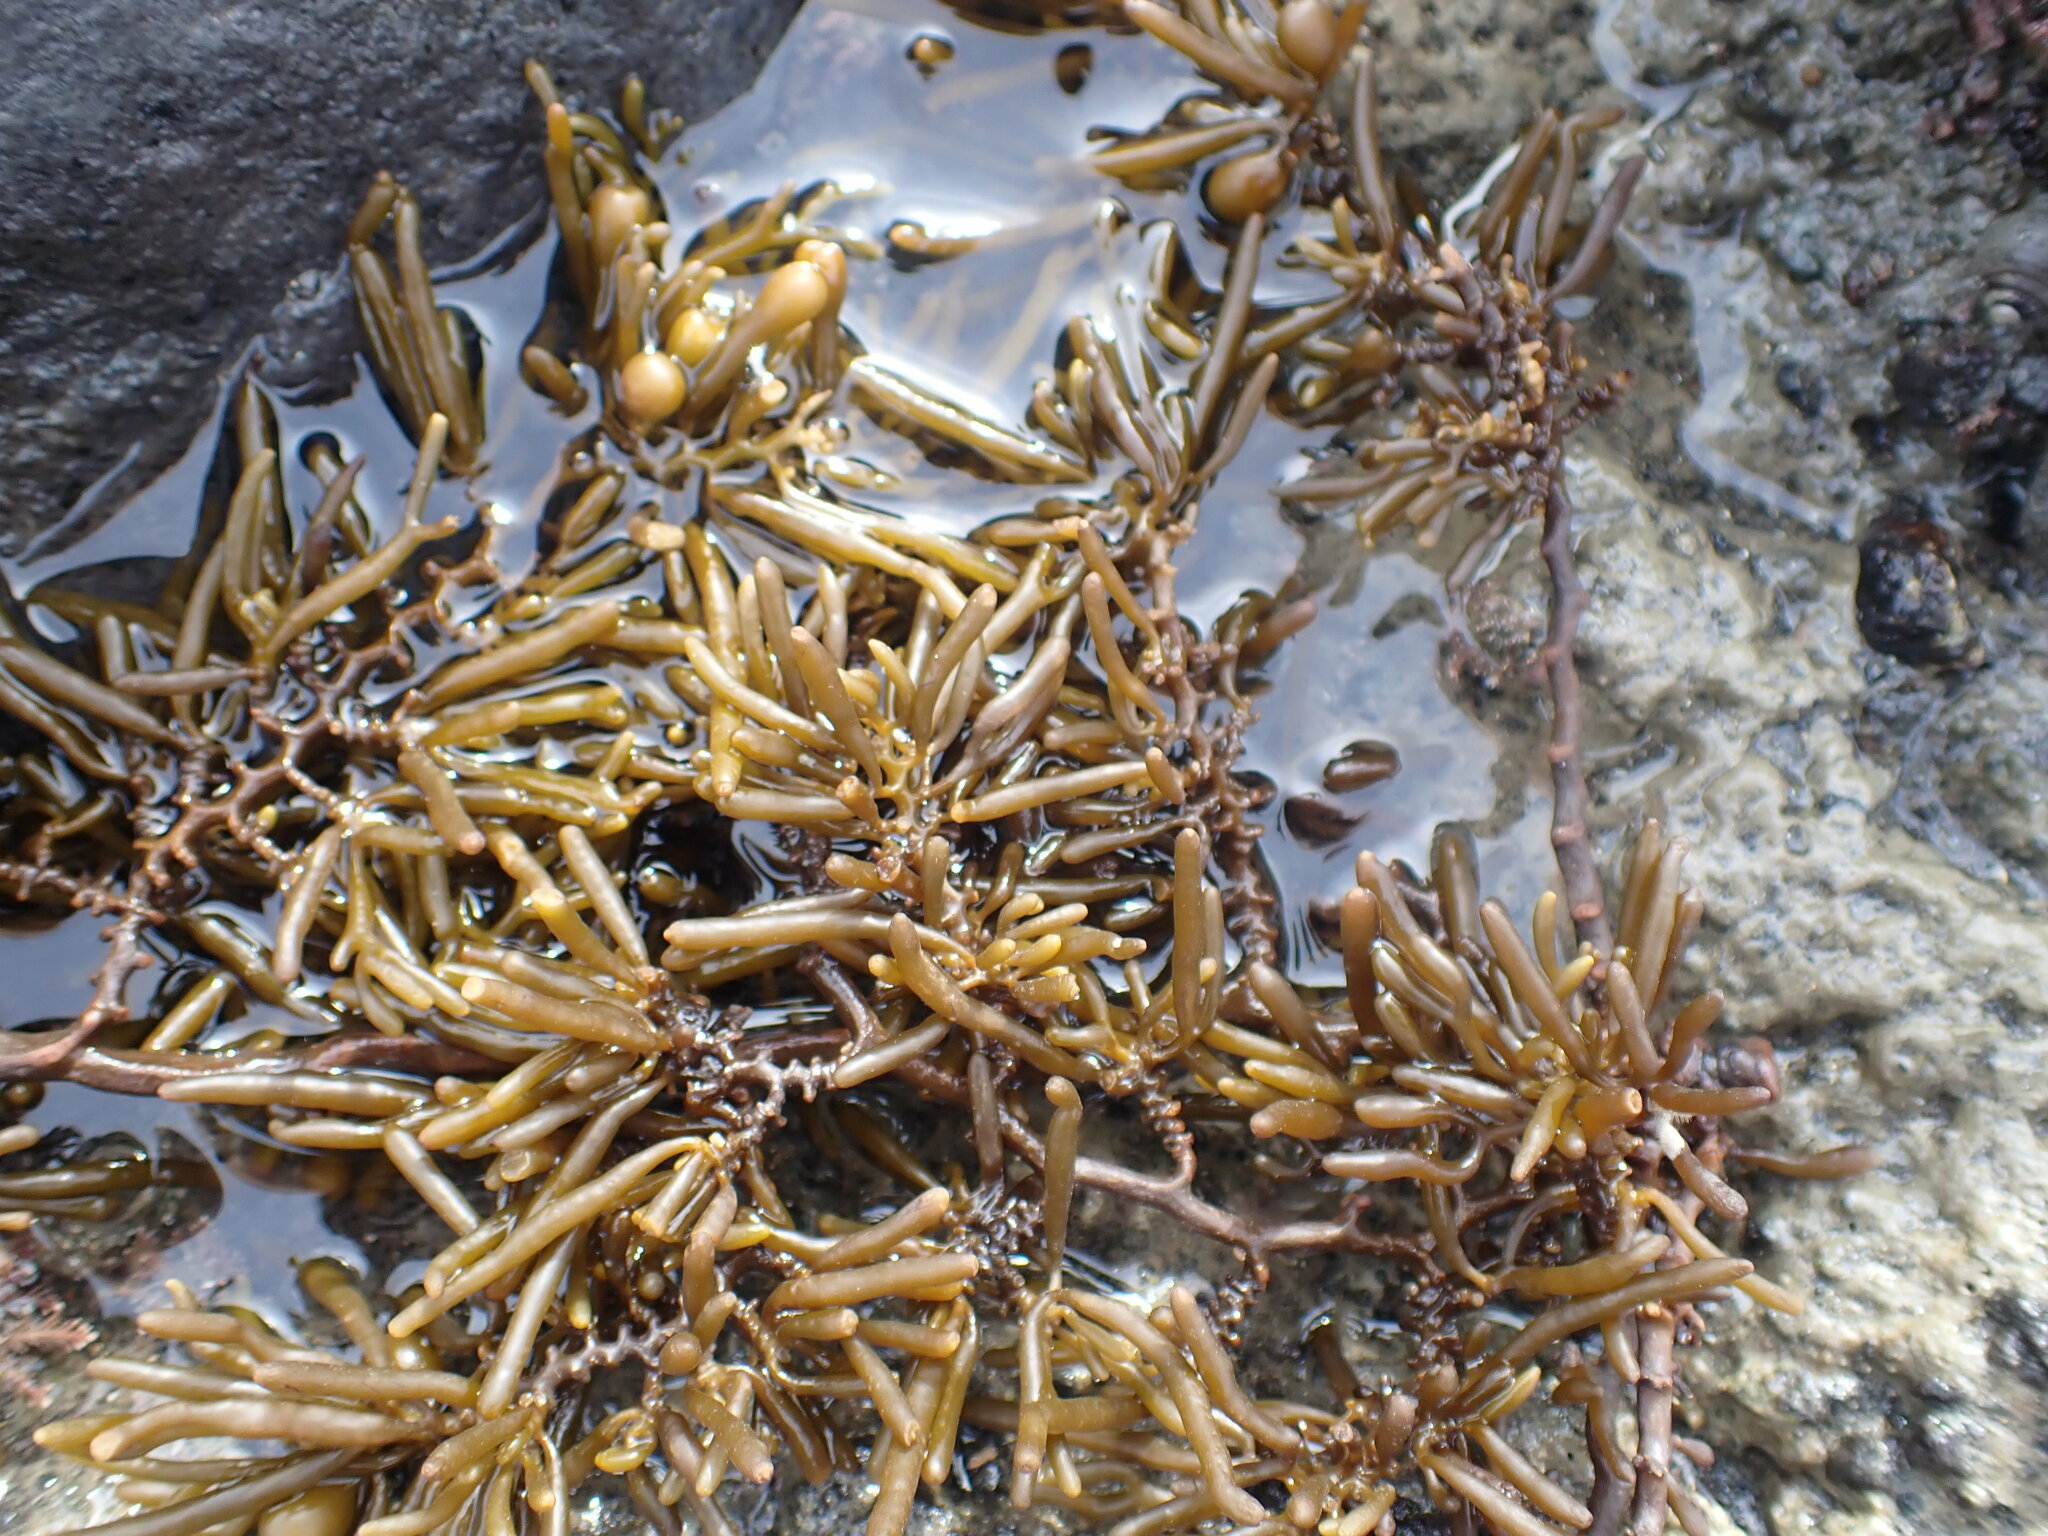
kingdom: Chromista
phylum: Ochrophyta
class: Phaeophyceae
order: Fucales
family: Sargassaceae
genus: Cystophora
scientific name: Cystophora torulosa
